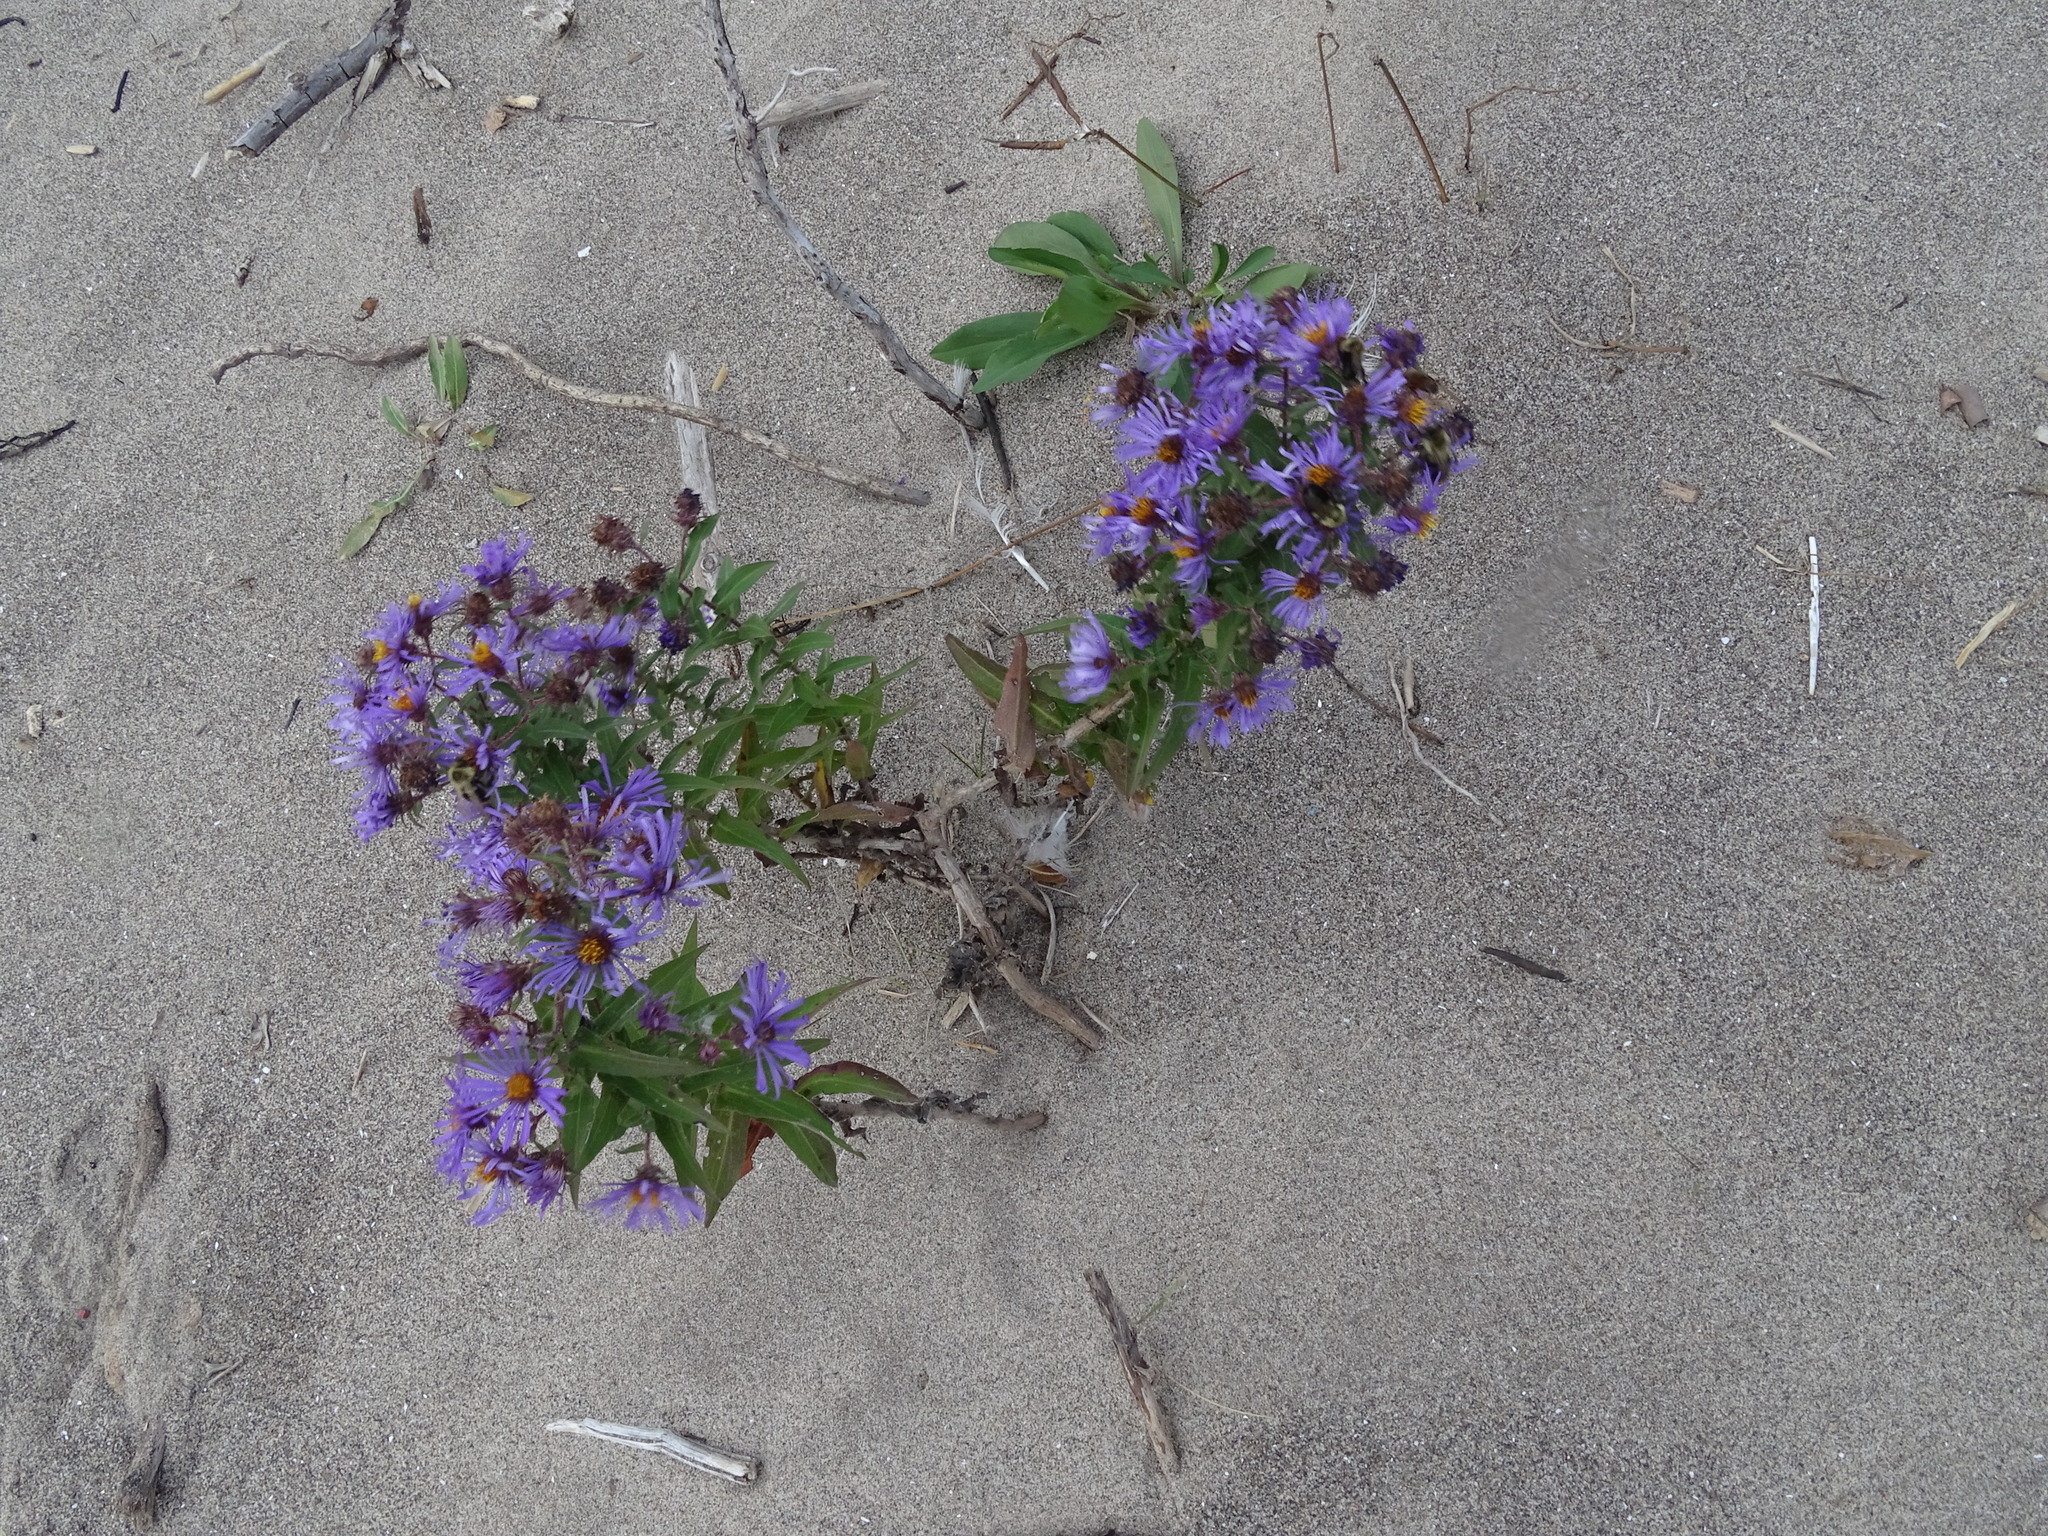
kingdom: Plantae
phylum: Tracheophyta
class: Magnoliopsida
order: Asterales
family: Asteraceae
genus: Symphyotrichum
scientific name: Symphyotrichum novae-angliae
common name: Michaelmas daisy
